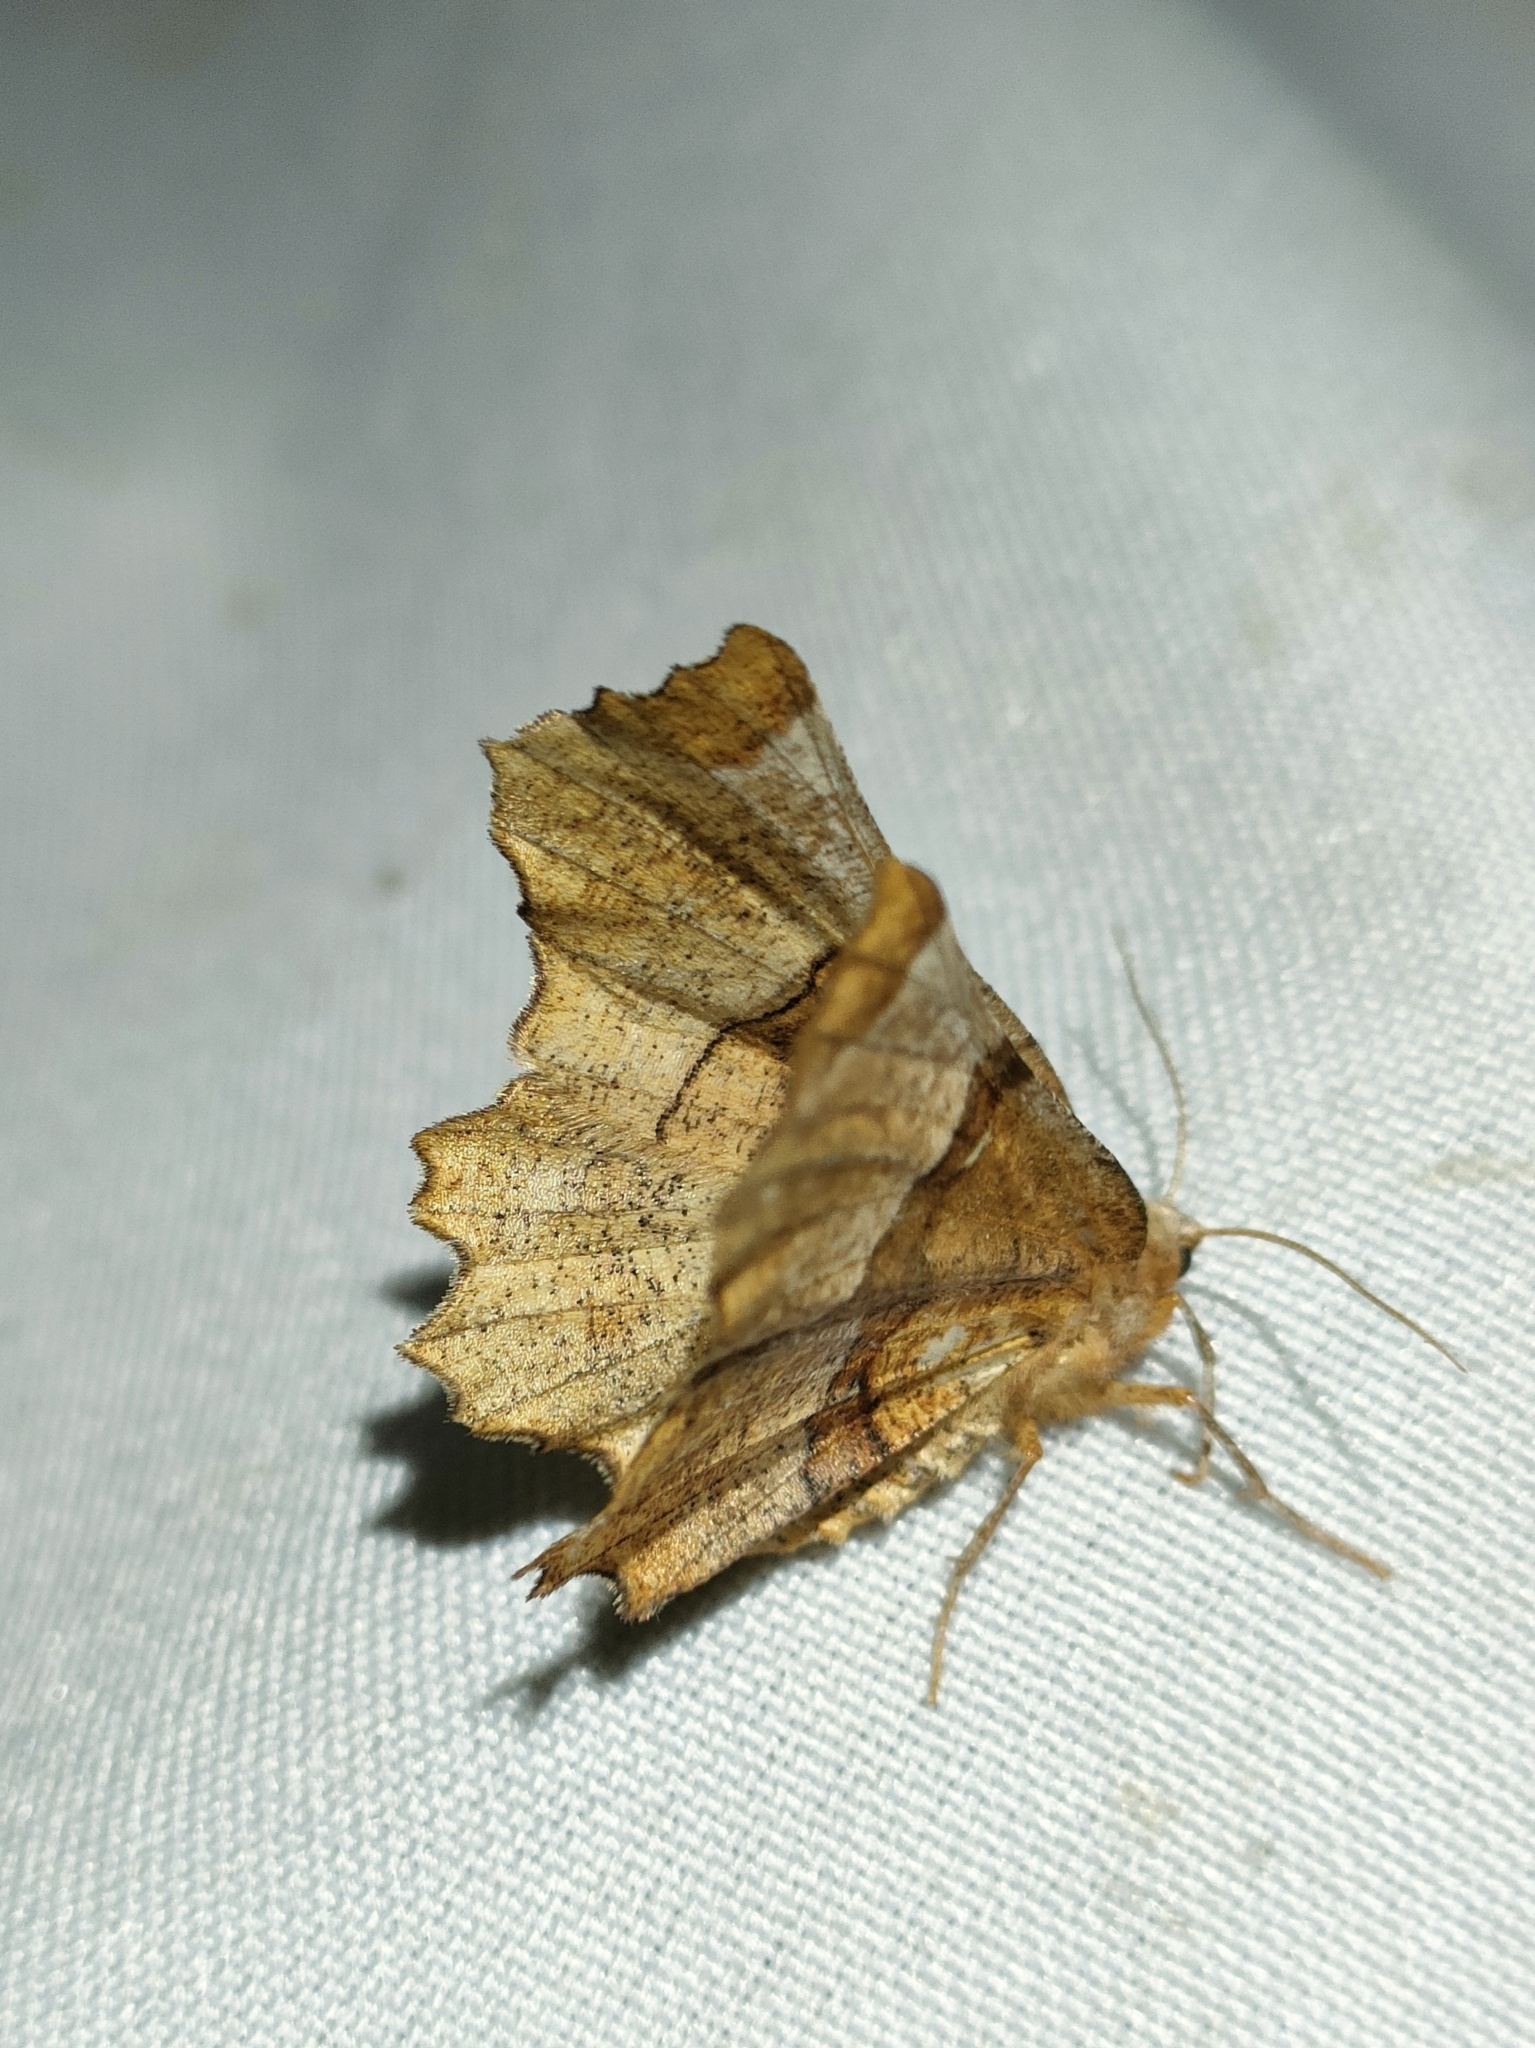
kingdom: Animalia
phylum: Arthropoda
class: Insecta
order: Lepidoptera
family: Geometridae
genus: Selenia
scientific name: Selenia lunularia
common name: Lunar thorn
